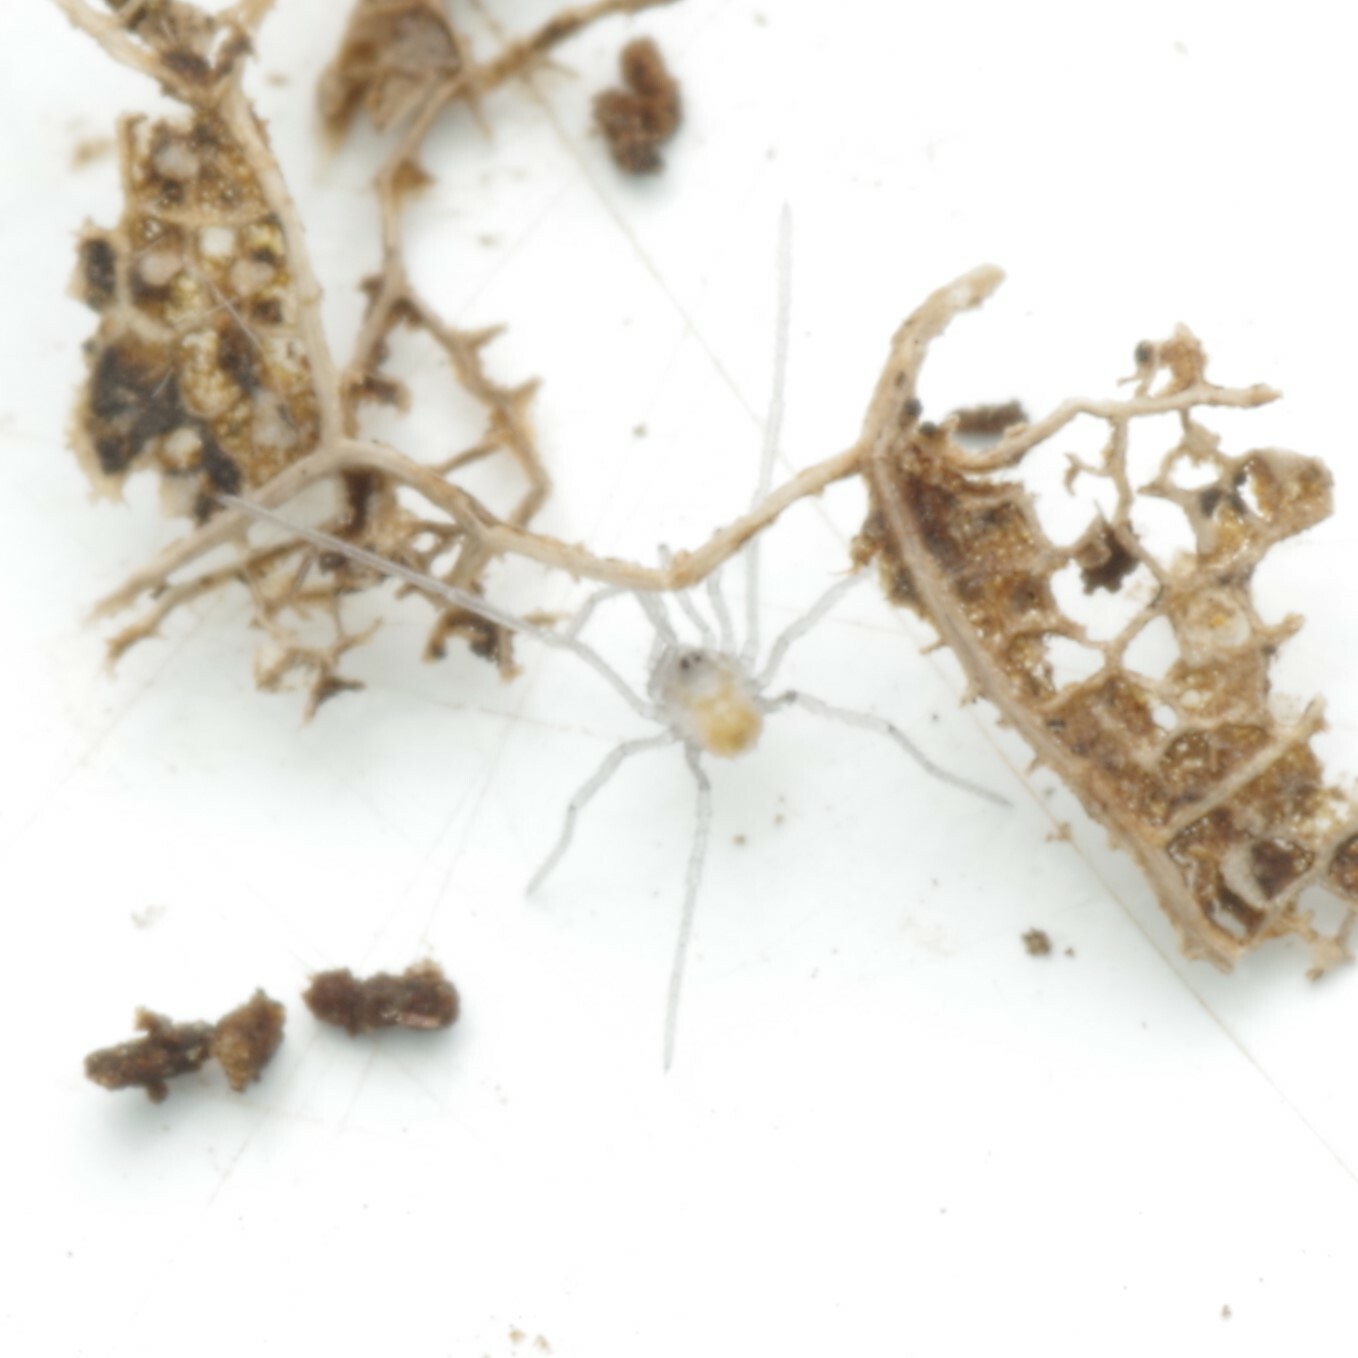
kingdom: Animalia
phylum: Arthropoda
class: Arachnida
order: Opiliones
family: Nemastomatidae
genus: Mitostoma
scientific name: Mitostoma chrysomelas
